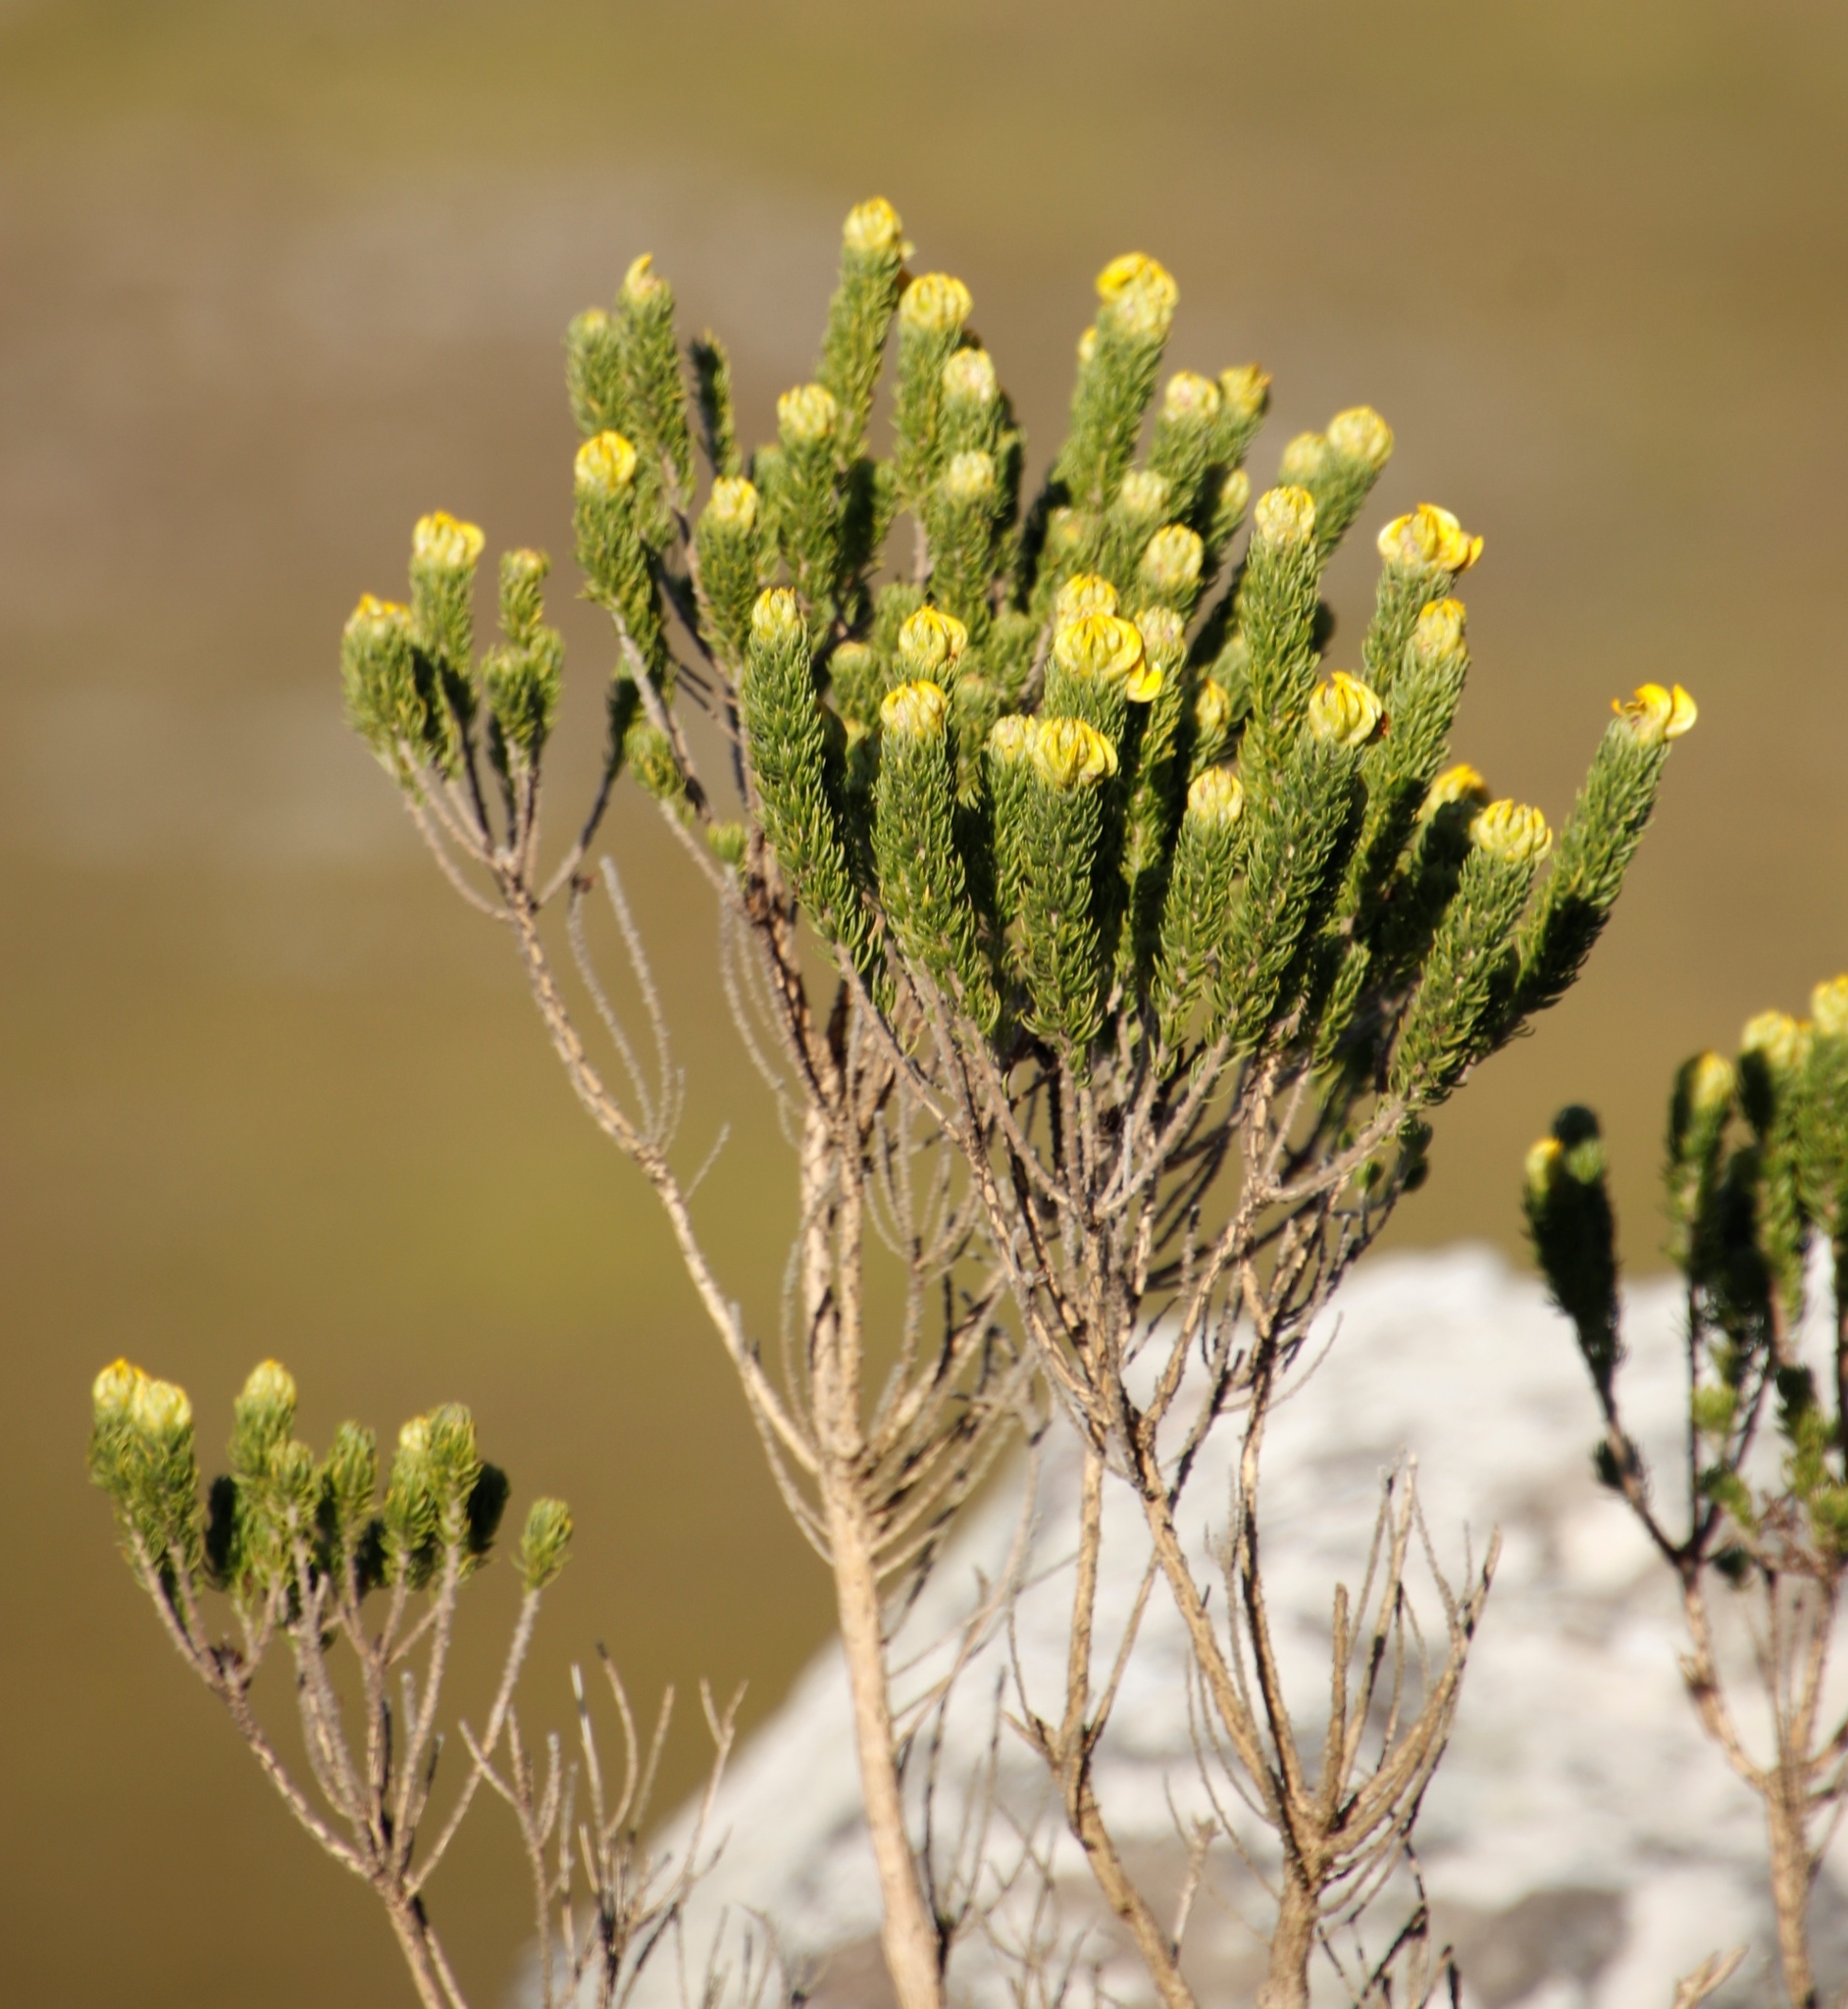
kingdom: Plantae
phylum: Tracheophyta
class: Magnoliopsida
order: Fabales
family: Fabaceae
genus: Aspalathus
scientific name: Aspalathus capitata
